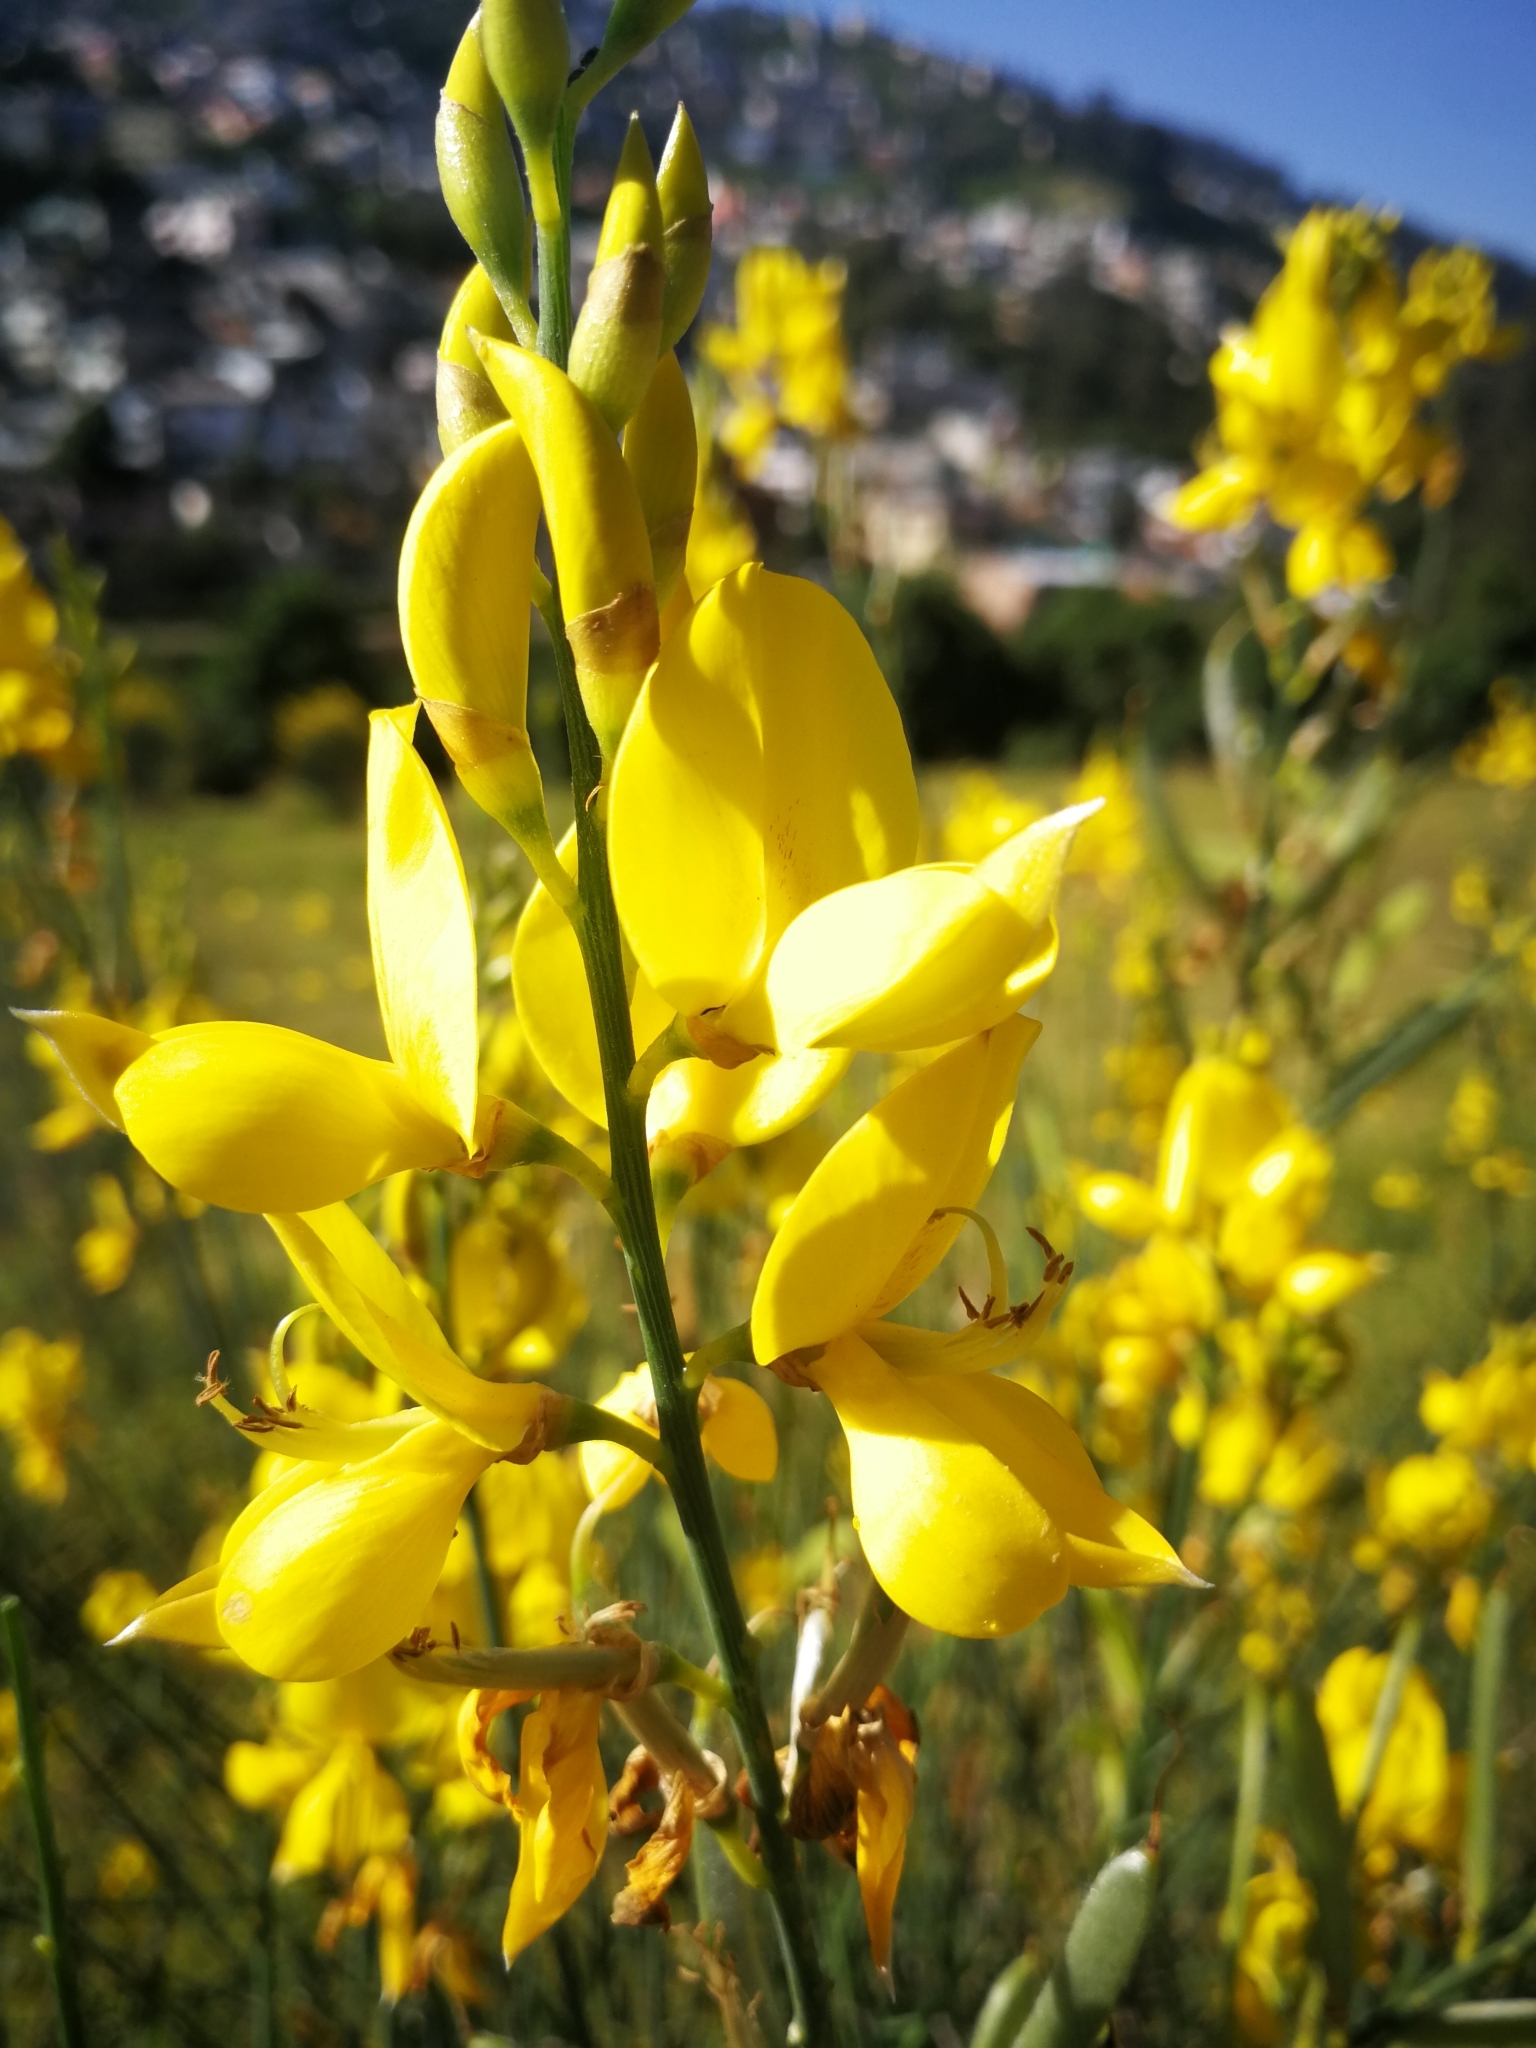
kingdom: Plantae
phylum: Tracheophyta
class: Magnoliopsida
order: Fabales
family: Fabaceae
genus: Spartium
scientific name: Spartium junceum
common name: Spanish broom
